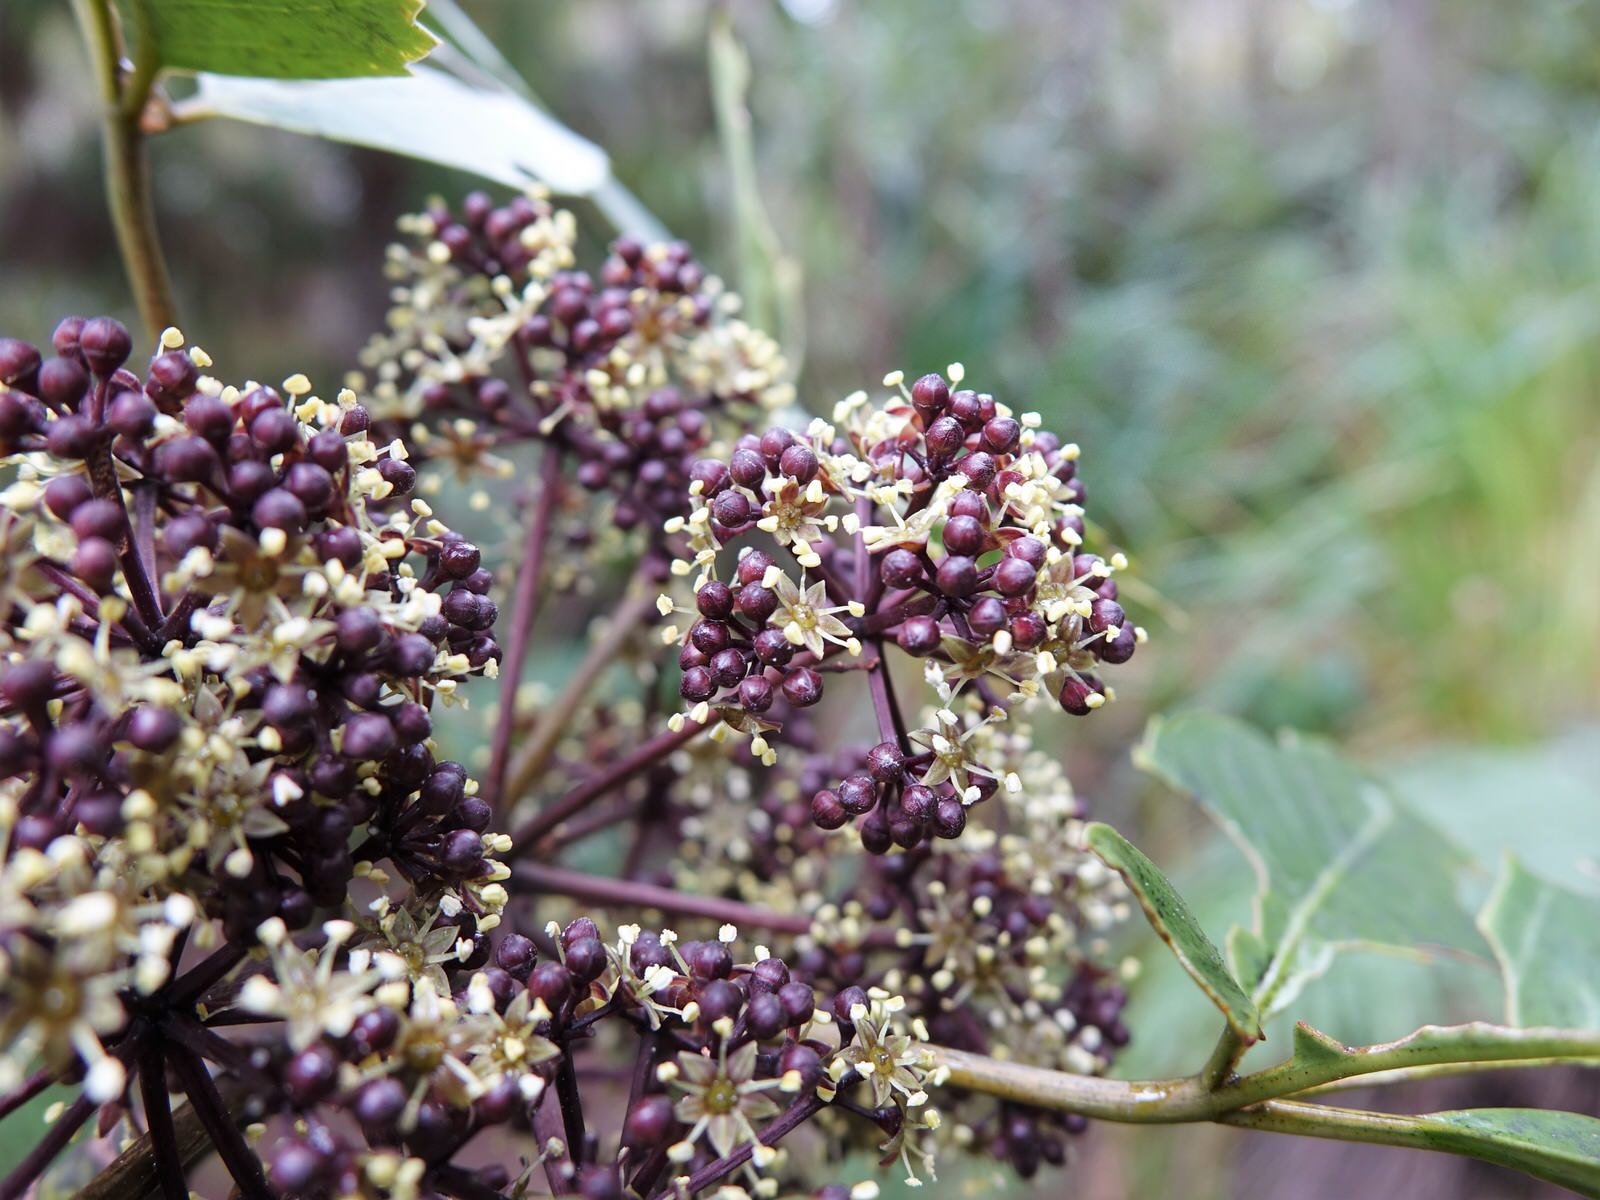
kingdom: Plantae
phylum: Tracheophyta
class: Magnoliopsida
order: Apiales
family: Araliaceae
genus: Neopanax
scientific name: Neopanax arboreus
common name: Five-fingers
